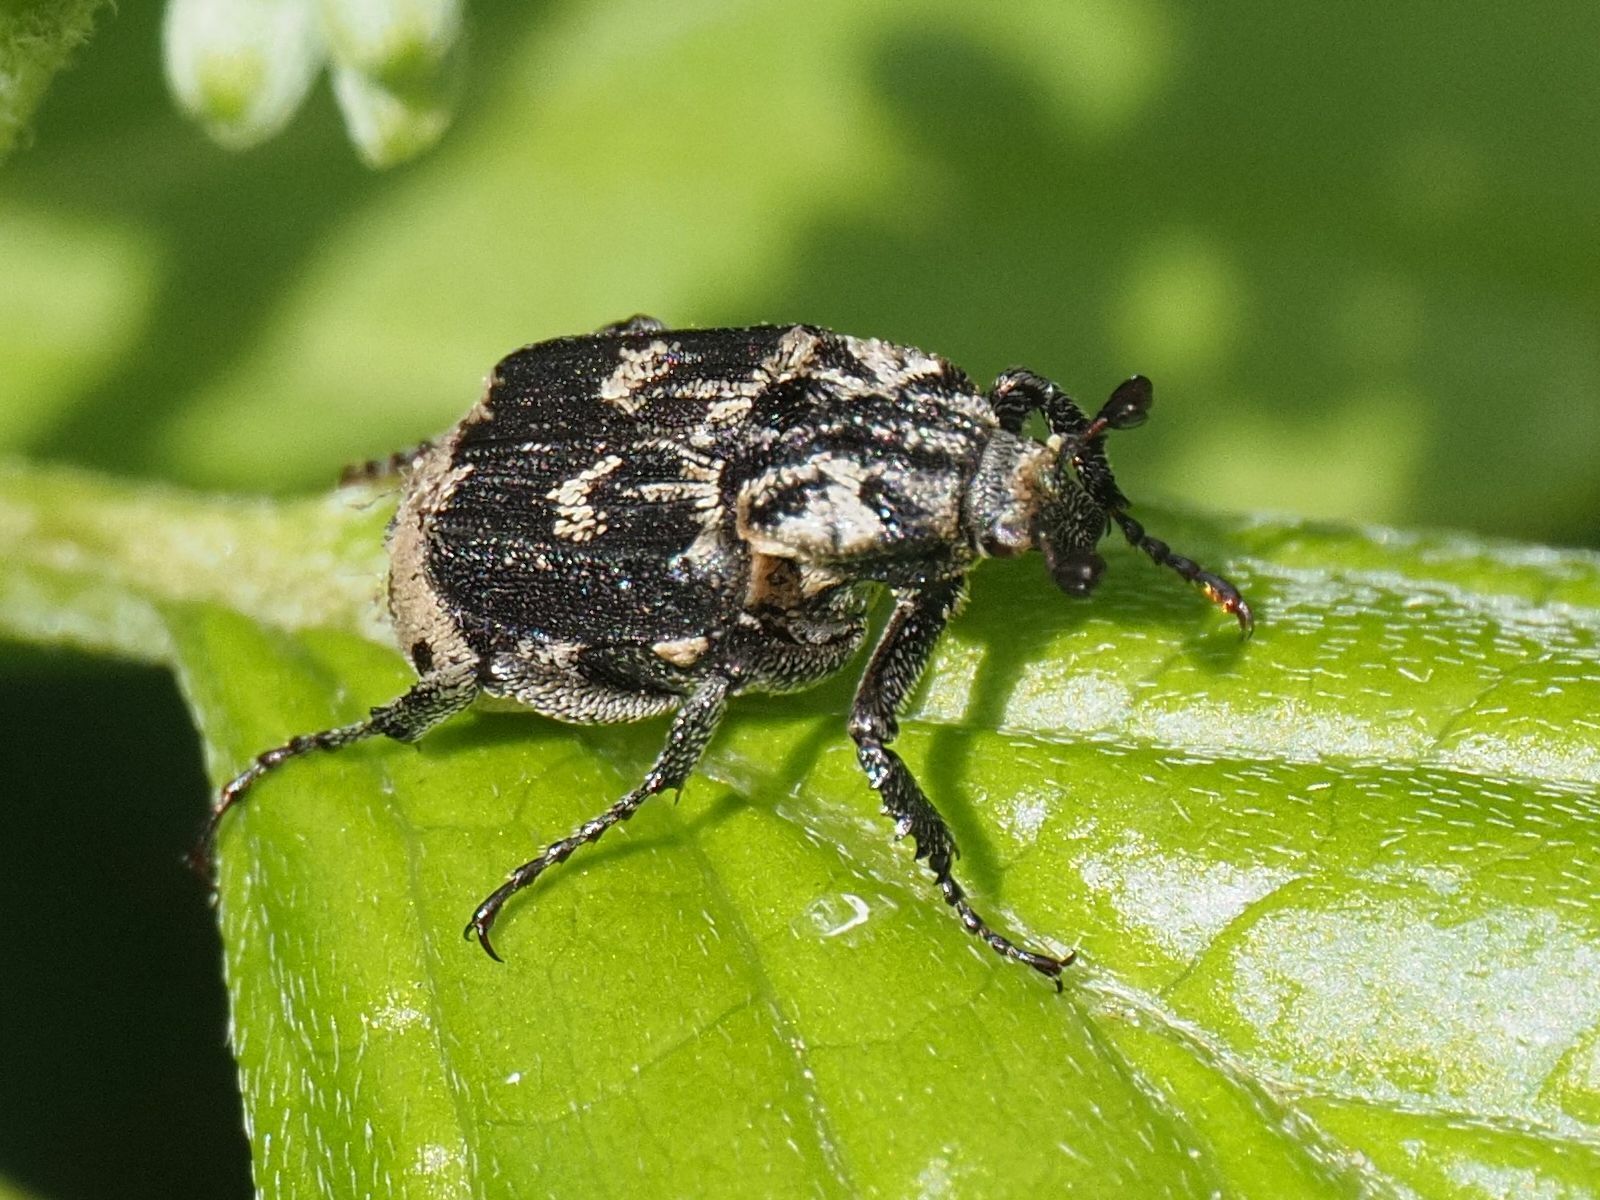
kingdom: Animalia
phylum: Arthropoda
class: Insecta
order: Coleoptera
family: Scarabaeidae
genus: Valgus
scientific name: Valgus hemipterus
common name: Bug flower chafer
